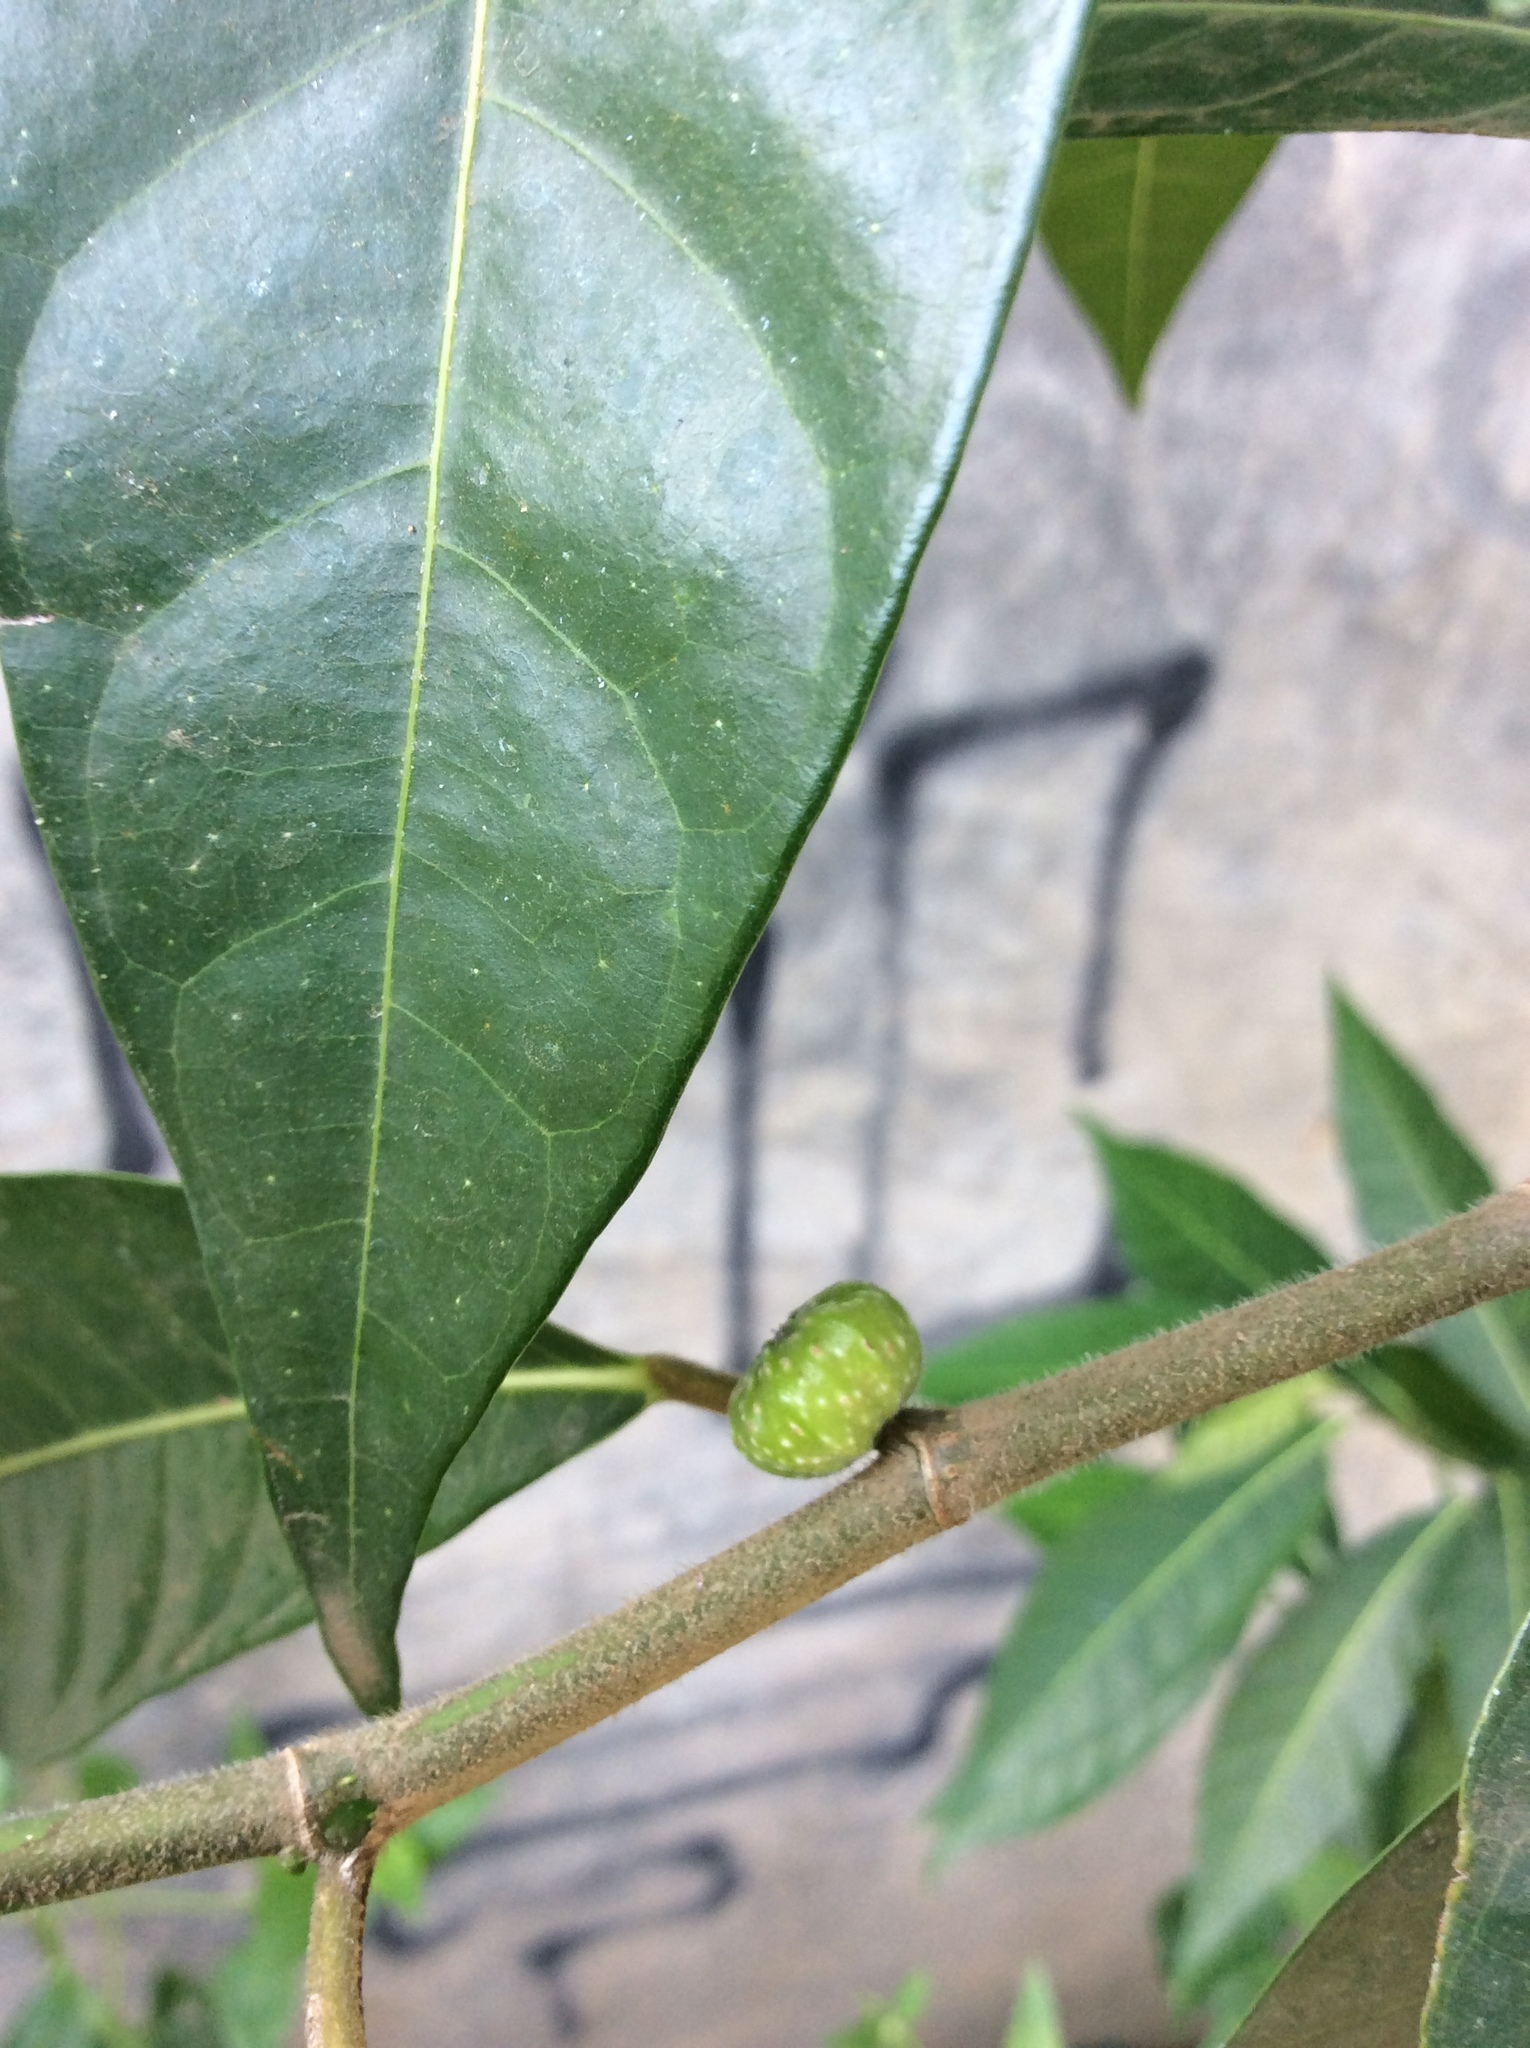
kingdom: Plantae
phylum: Tracheophyta
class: Magnoliopsida
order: Rosales
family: Moraceae
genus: Ficus
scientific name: Ficus septica
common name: Septic fig
